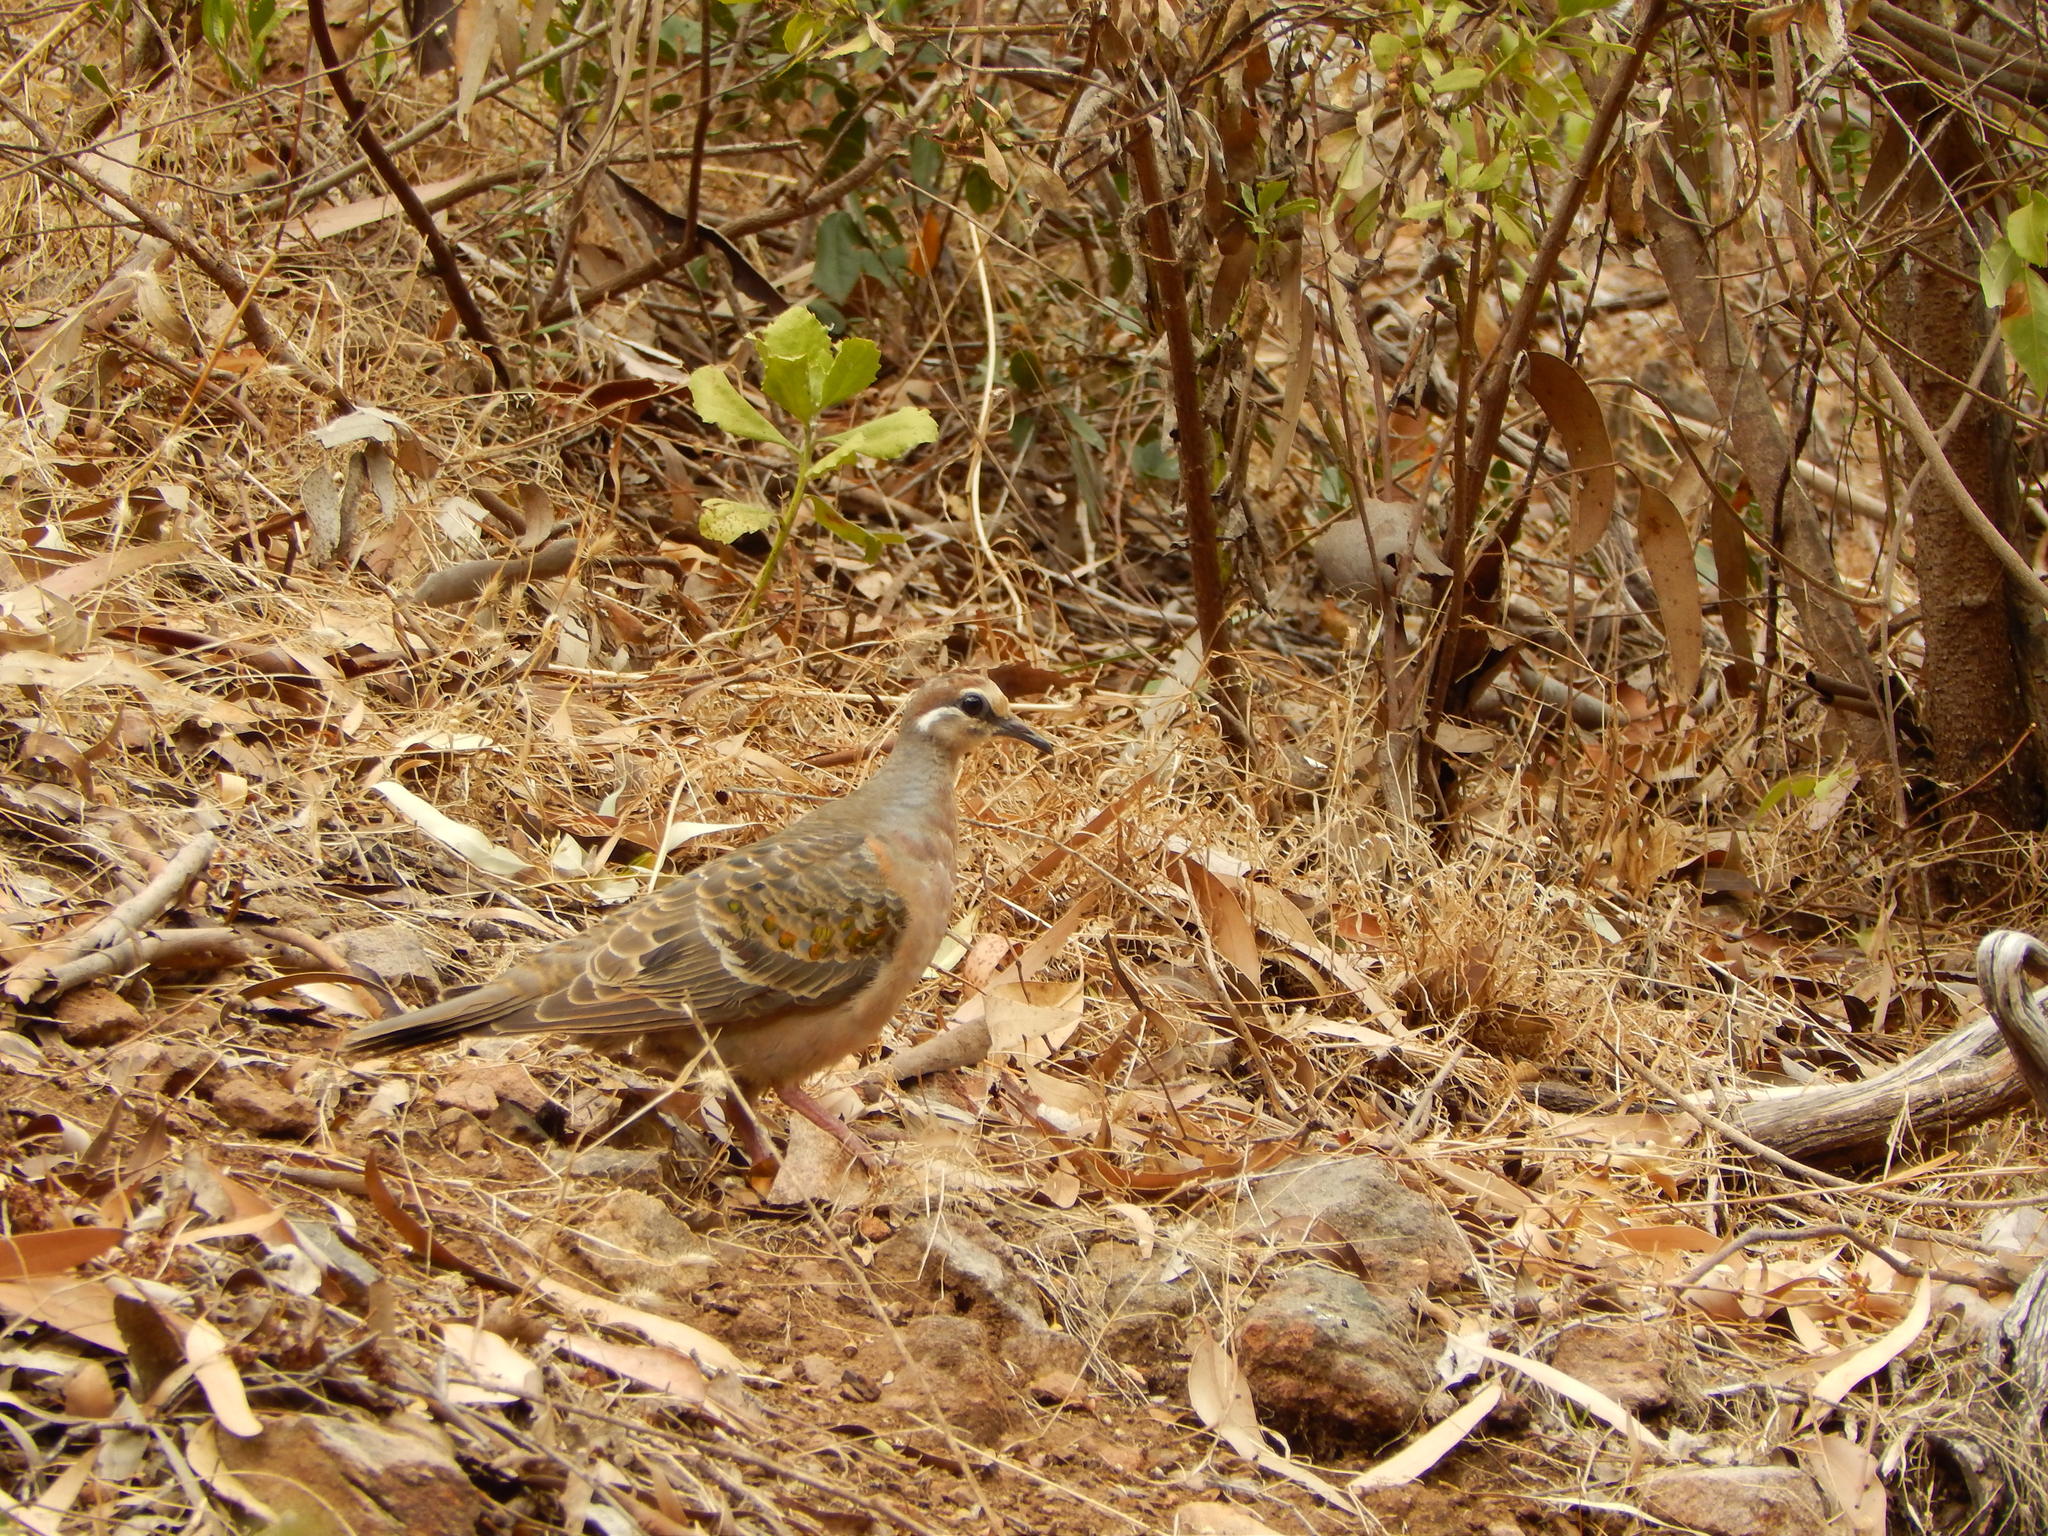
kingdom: Animalia
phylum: Chordata
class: Aves
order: Columbiformes
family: Columbidae
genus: Phaps
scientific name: Phaps chalcoptera
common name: Common bronzewing
